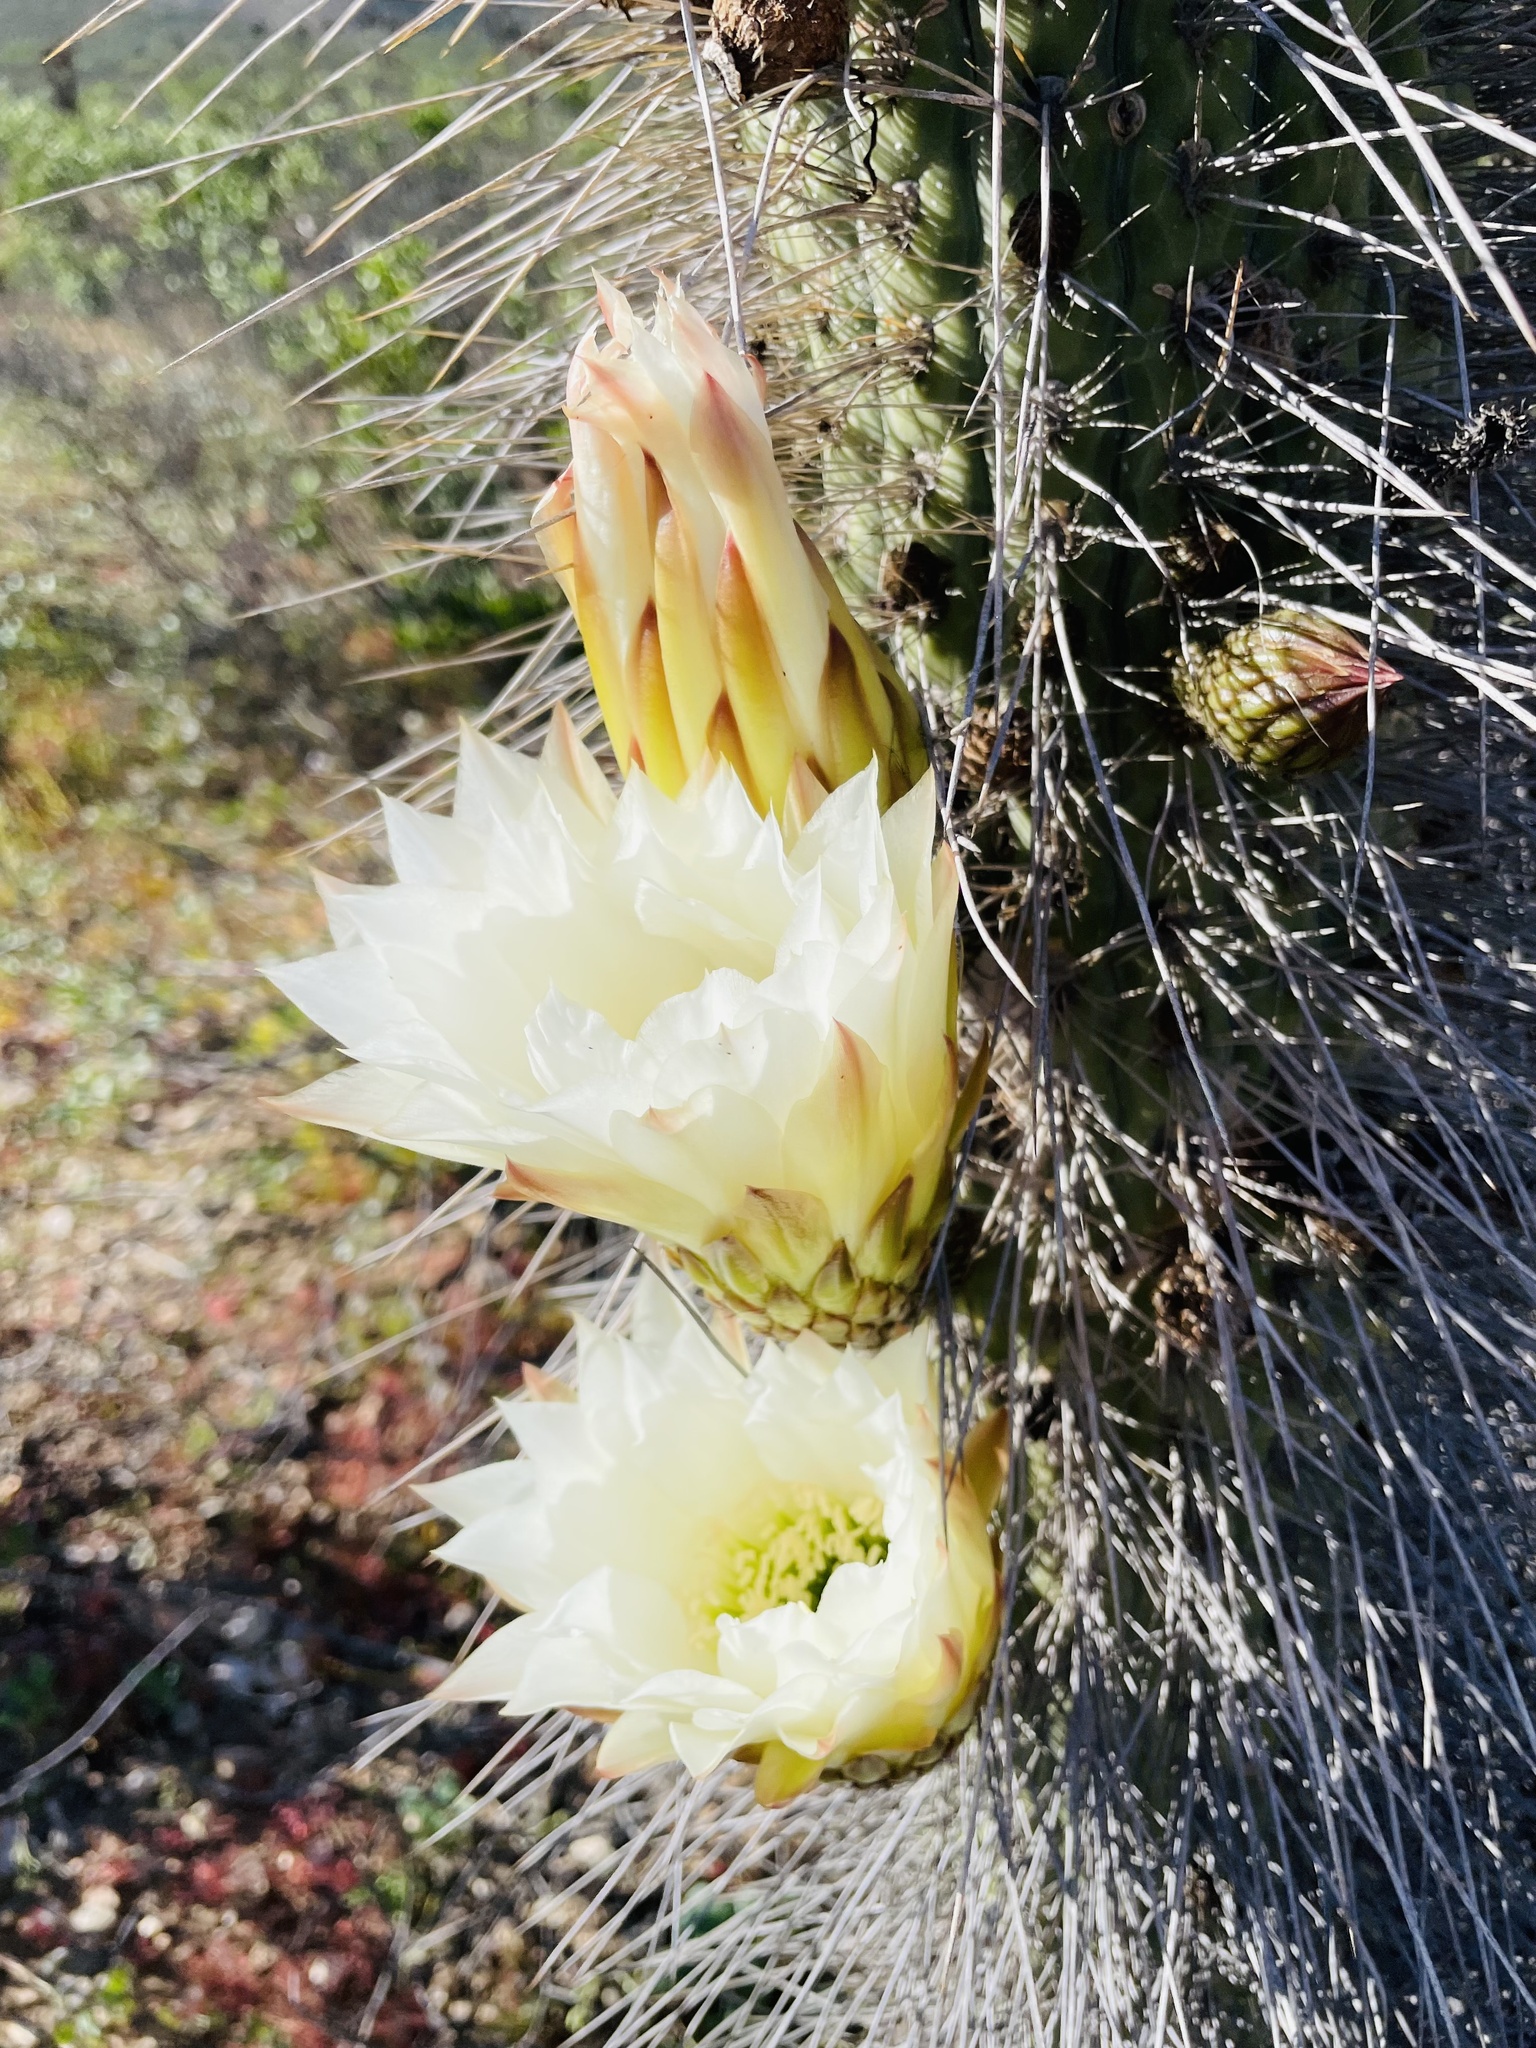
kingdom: Plantae
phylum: Tracheophyta
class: Magnoliopsida
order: Caryophyllales
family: Cactaceae
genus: Leucostele
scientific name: Leucostele chiloensis
